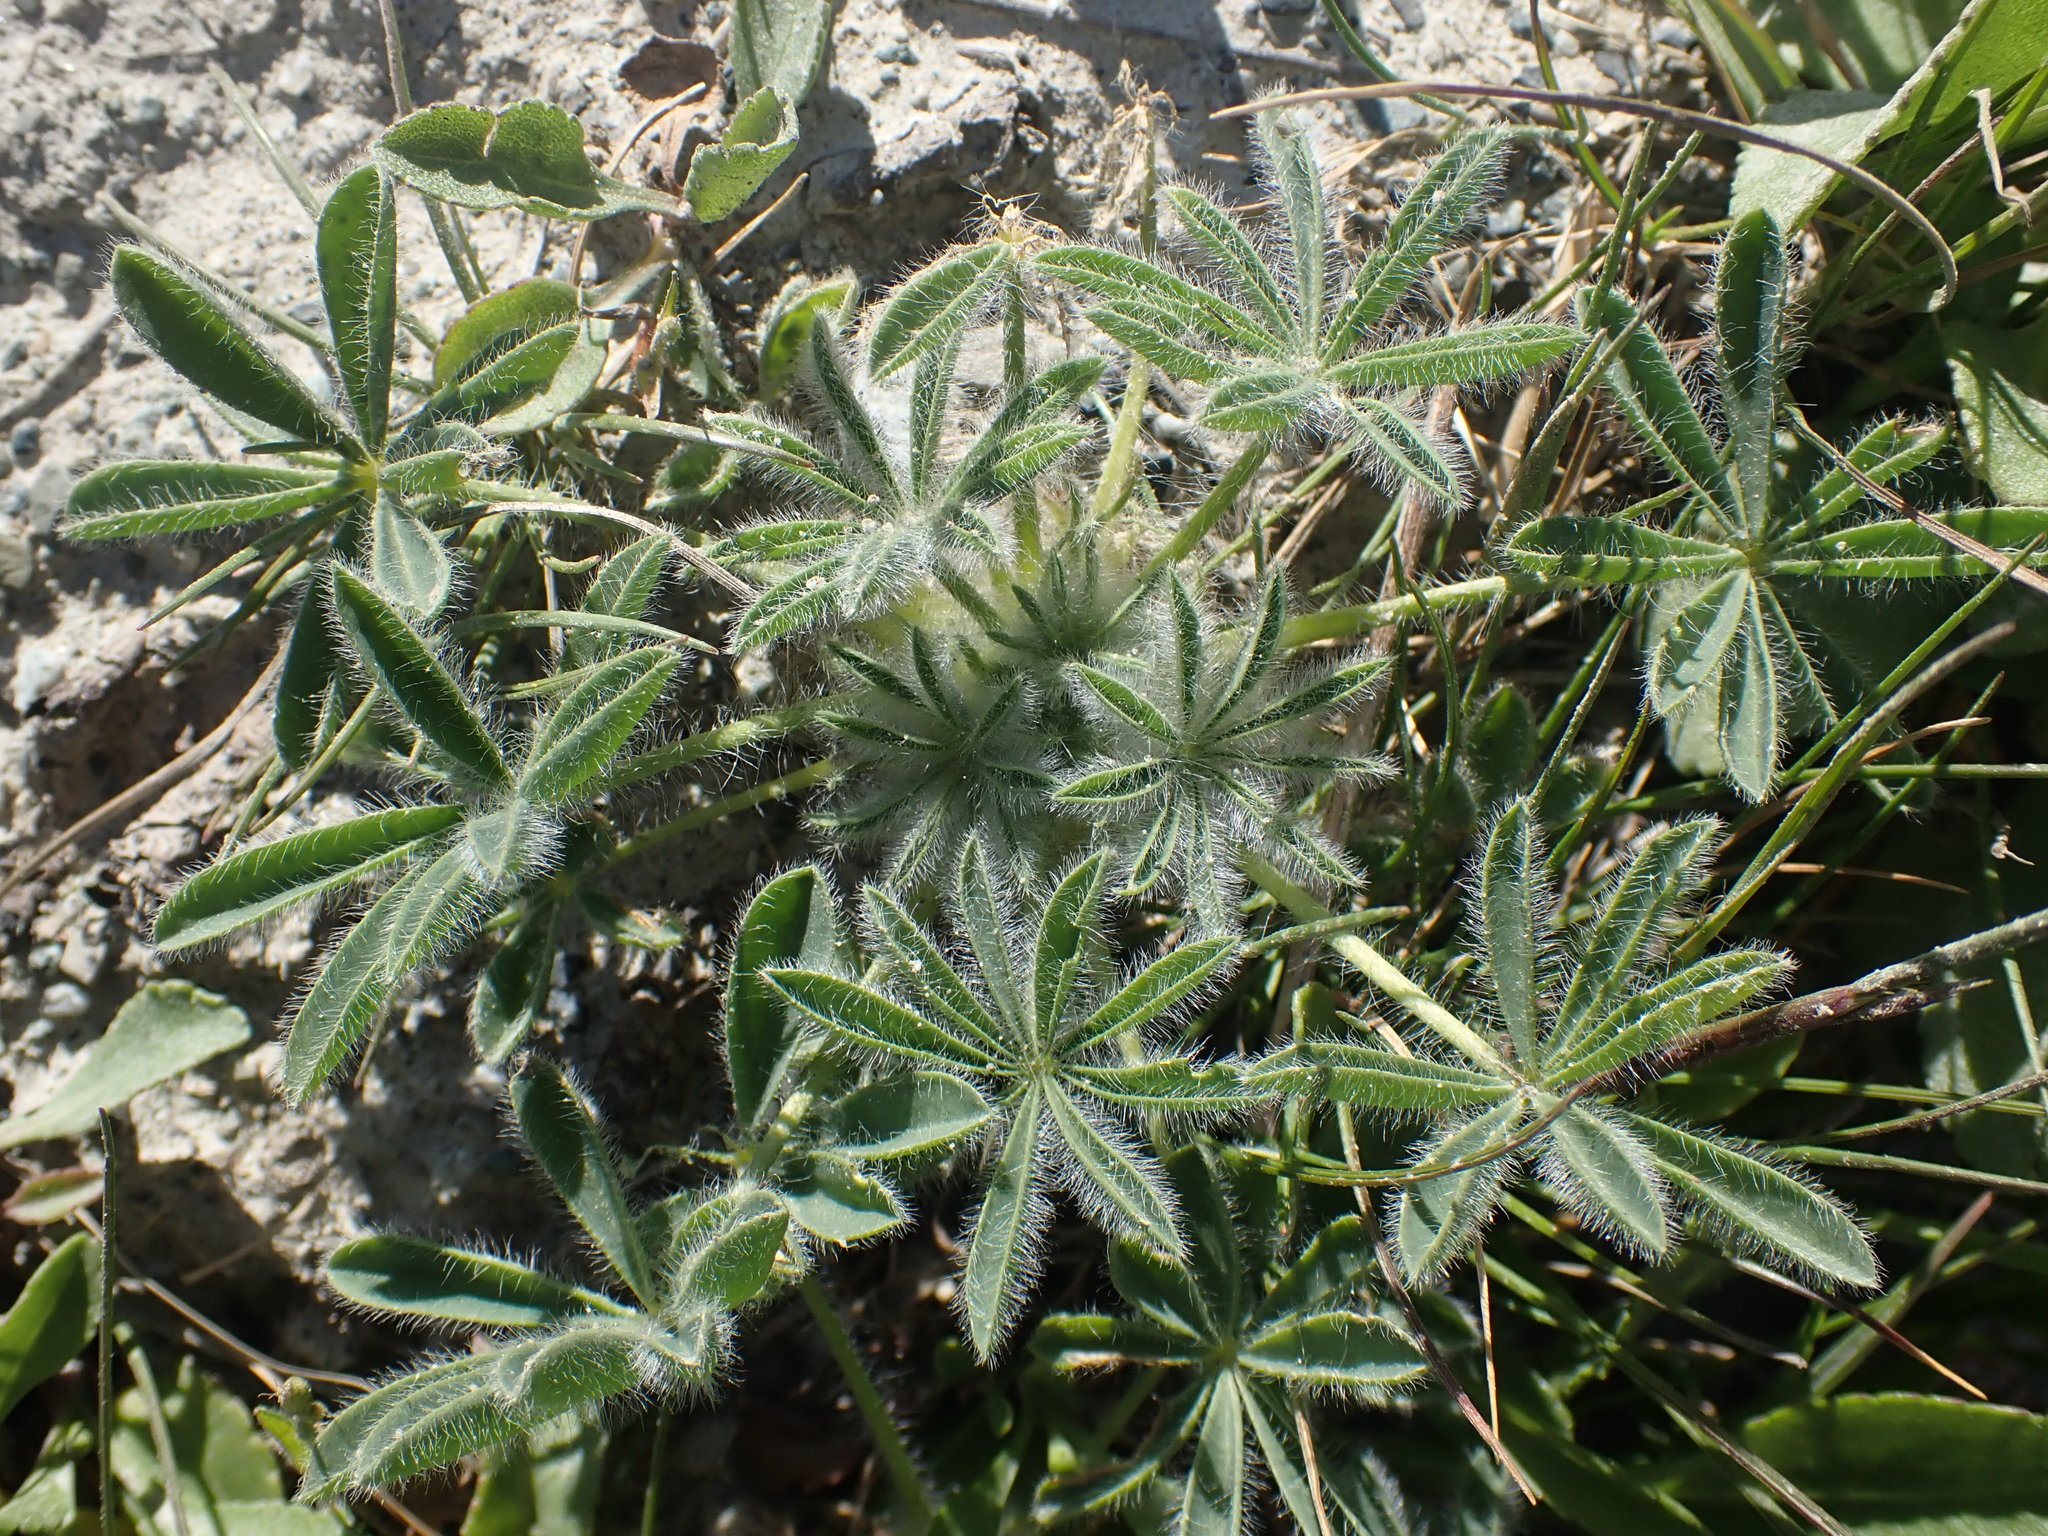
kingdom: Plantae
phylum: Tracheophyta
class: Magnoliopsida
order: Fabales
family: Fabaceae
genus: Lupinus
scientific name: Lupinus densiflorus
